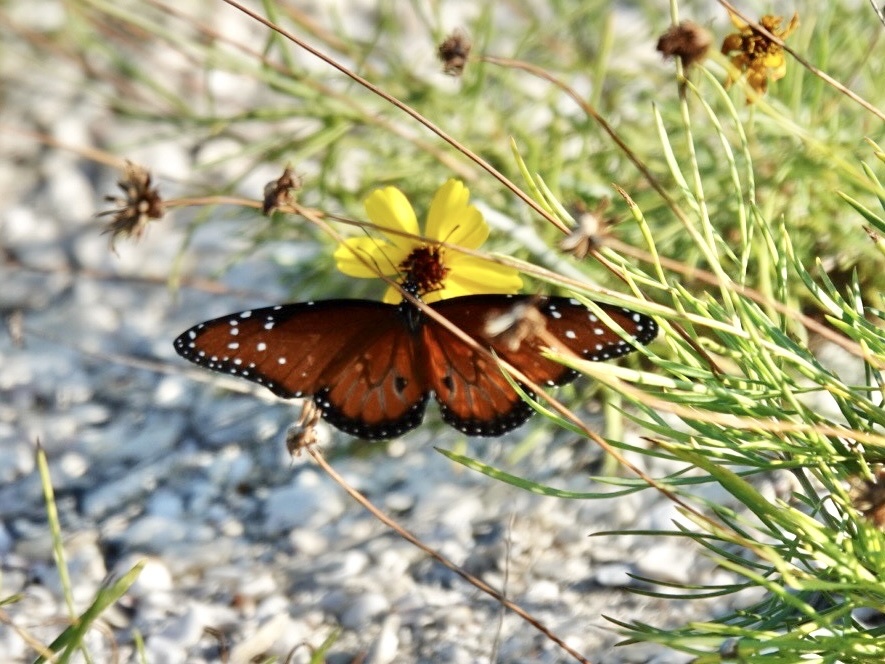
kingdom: Animalia
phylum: Arthropoda
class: Insecta
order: Lepidoptera
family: Nymphalidae
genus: Danaus
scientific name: Danaus gilippus
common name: Queen
